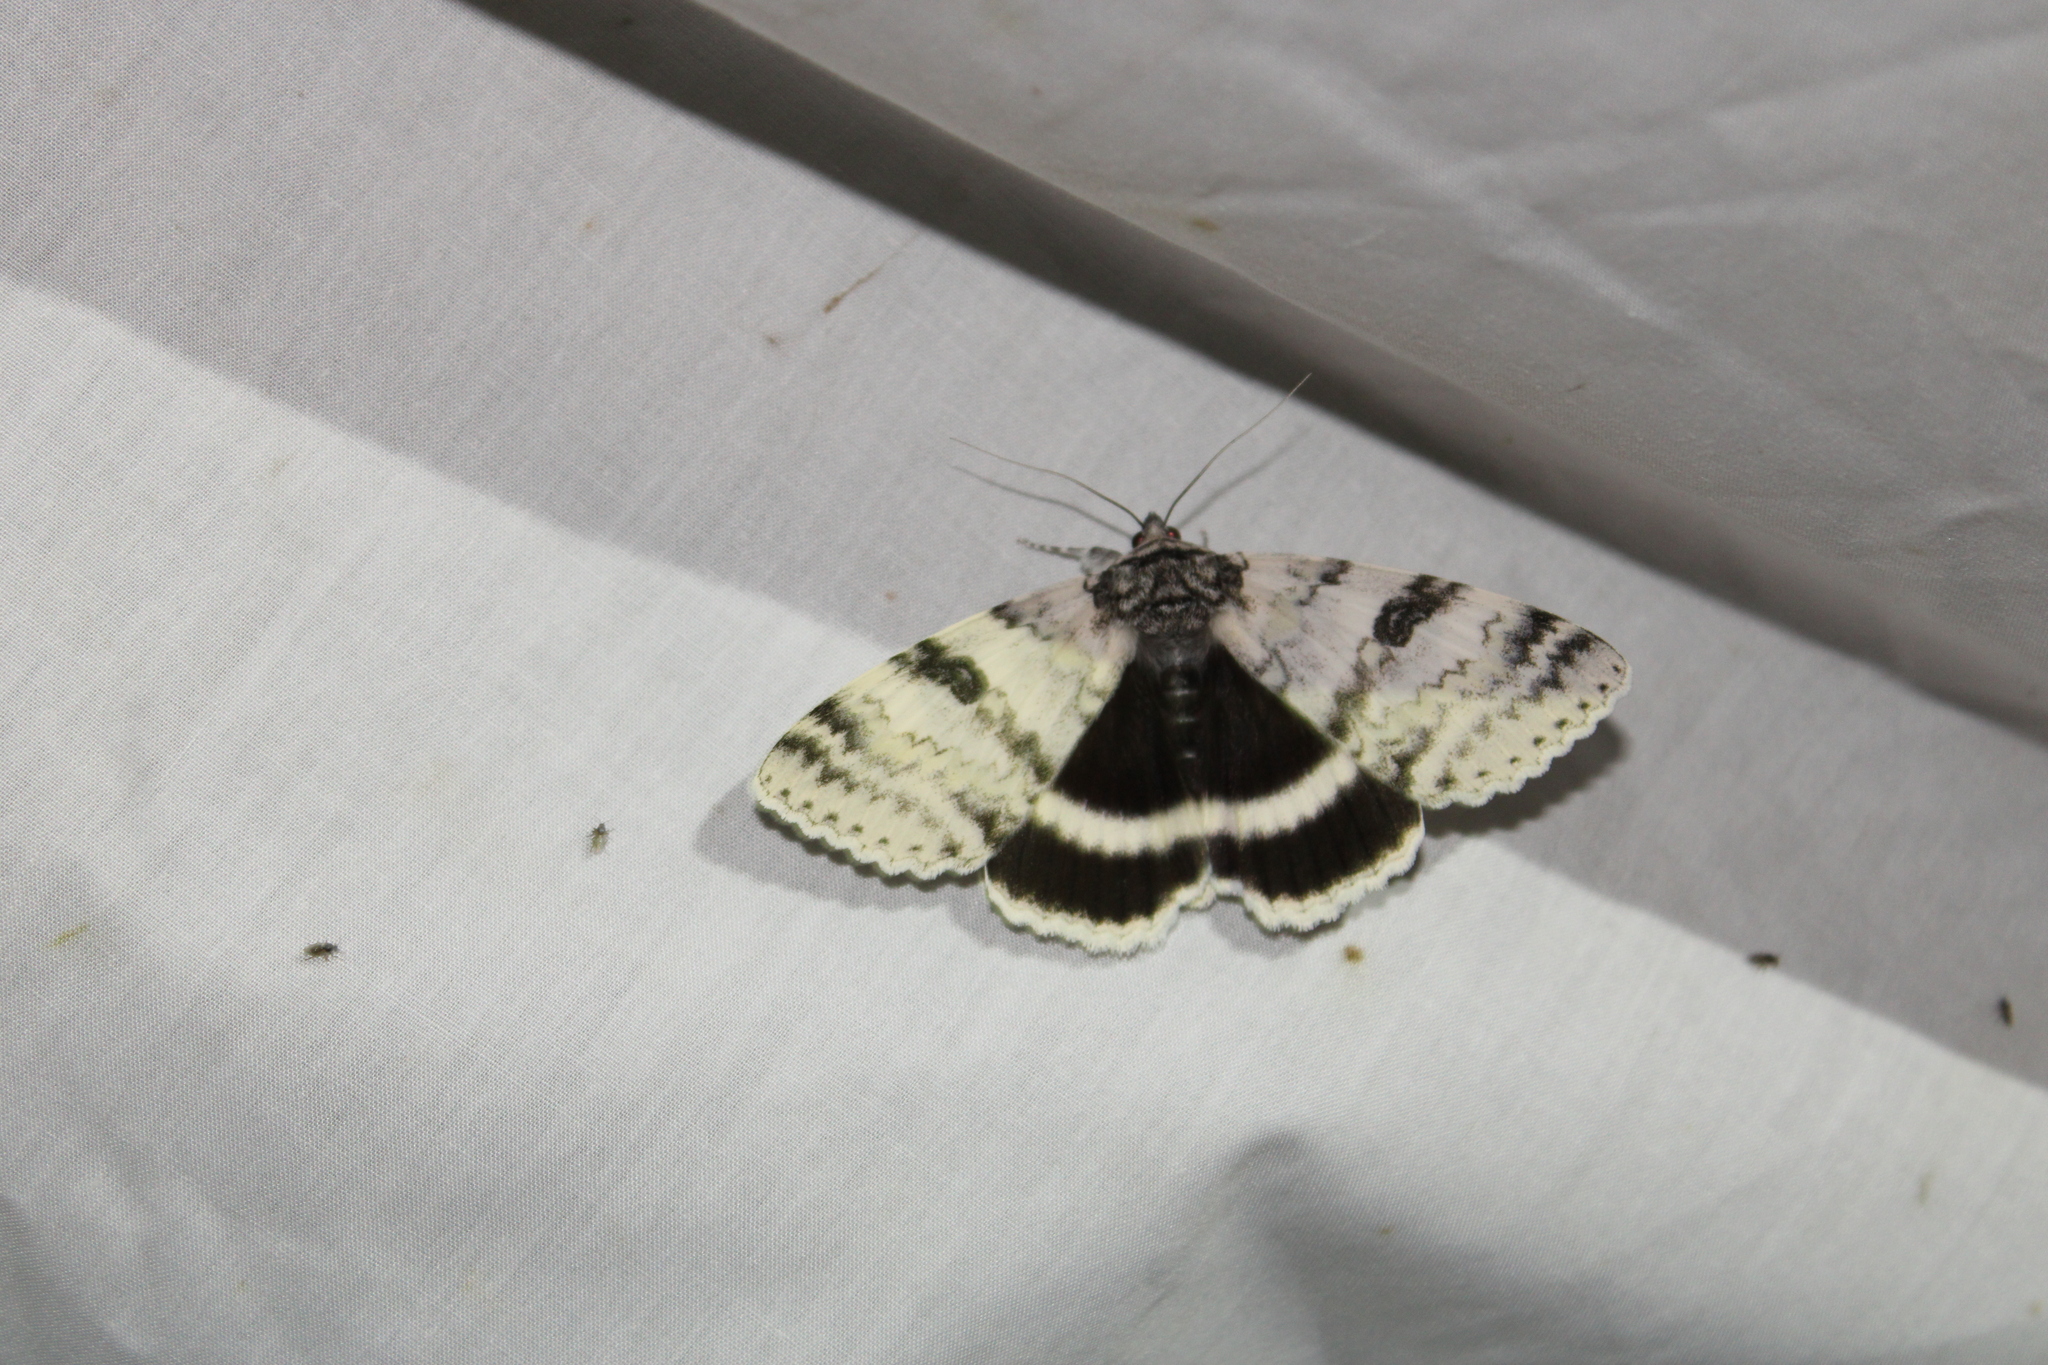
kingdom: Animalia
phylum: Arthropoda
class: Insecta
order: Lepidoptera
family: Erebidae
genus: Catocala
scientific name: Catocala relicta
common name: White underwing
